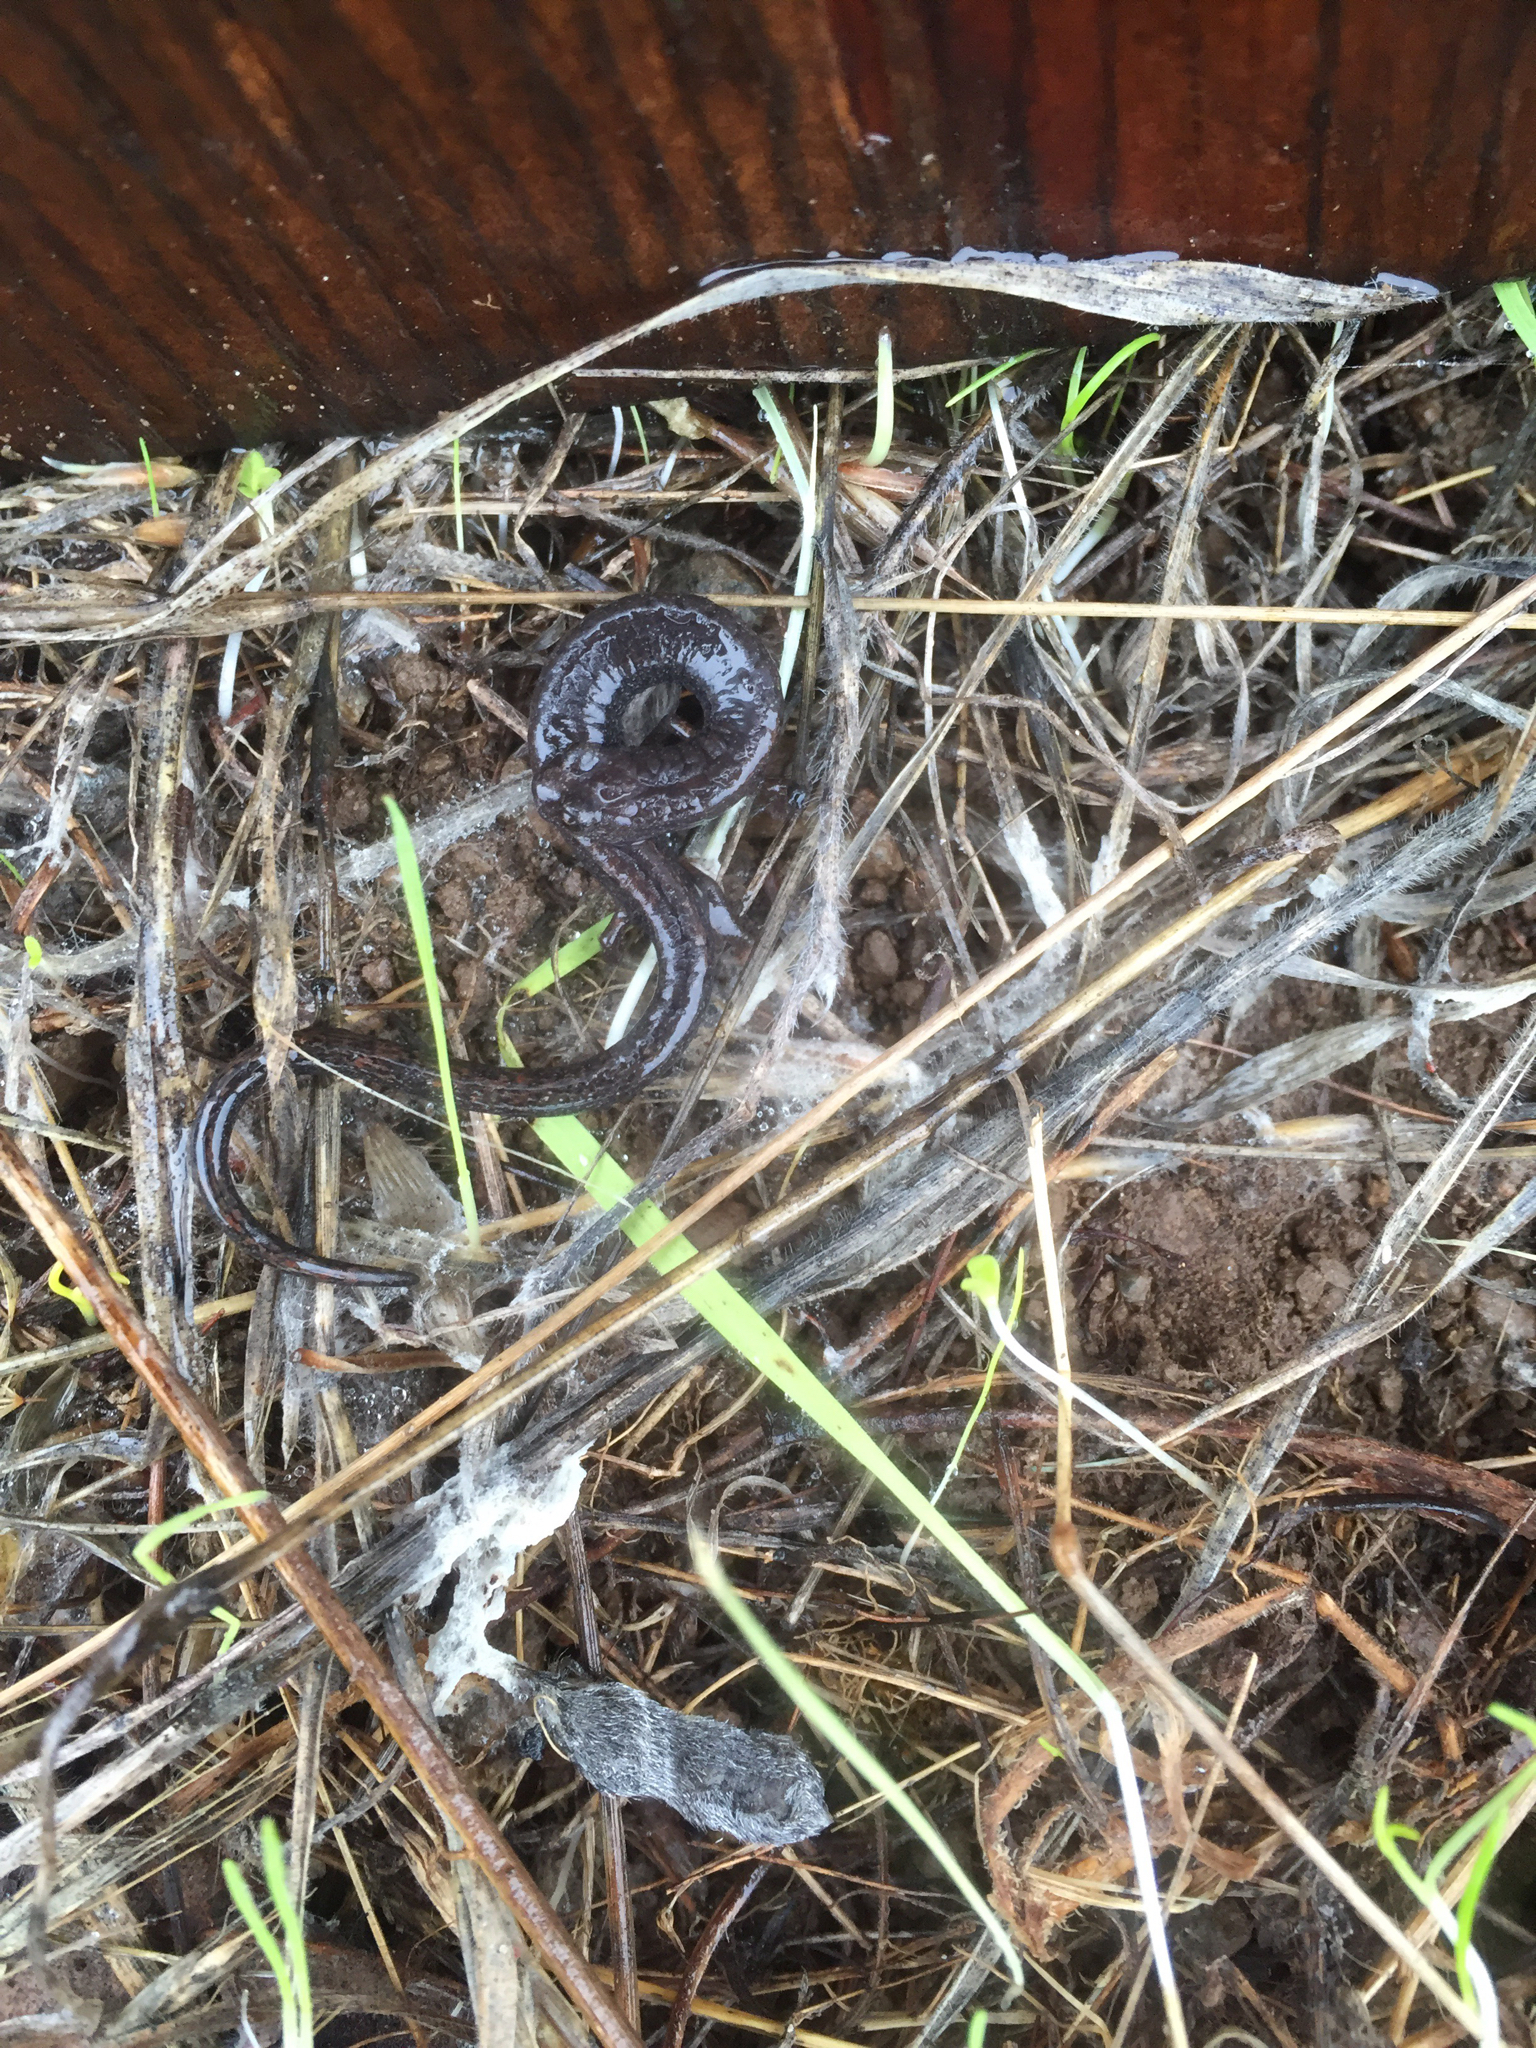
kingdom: Animalia
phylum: Chordata
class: Amphibia
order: Caudata
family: Plethodontidae
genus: Batrachoseps
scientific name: Batrachoseps attenuatus
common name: California slender salamander
